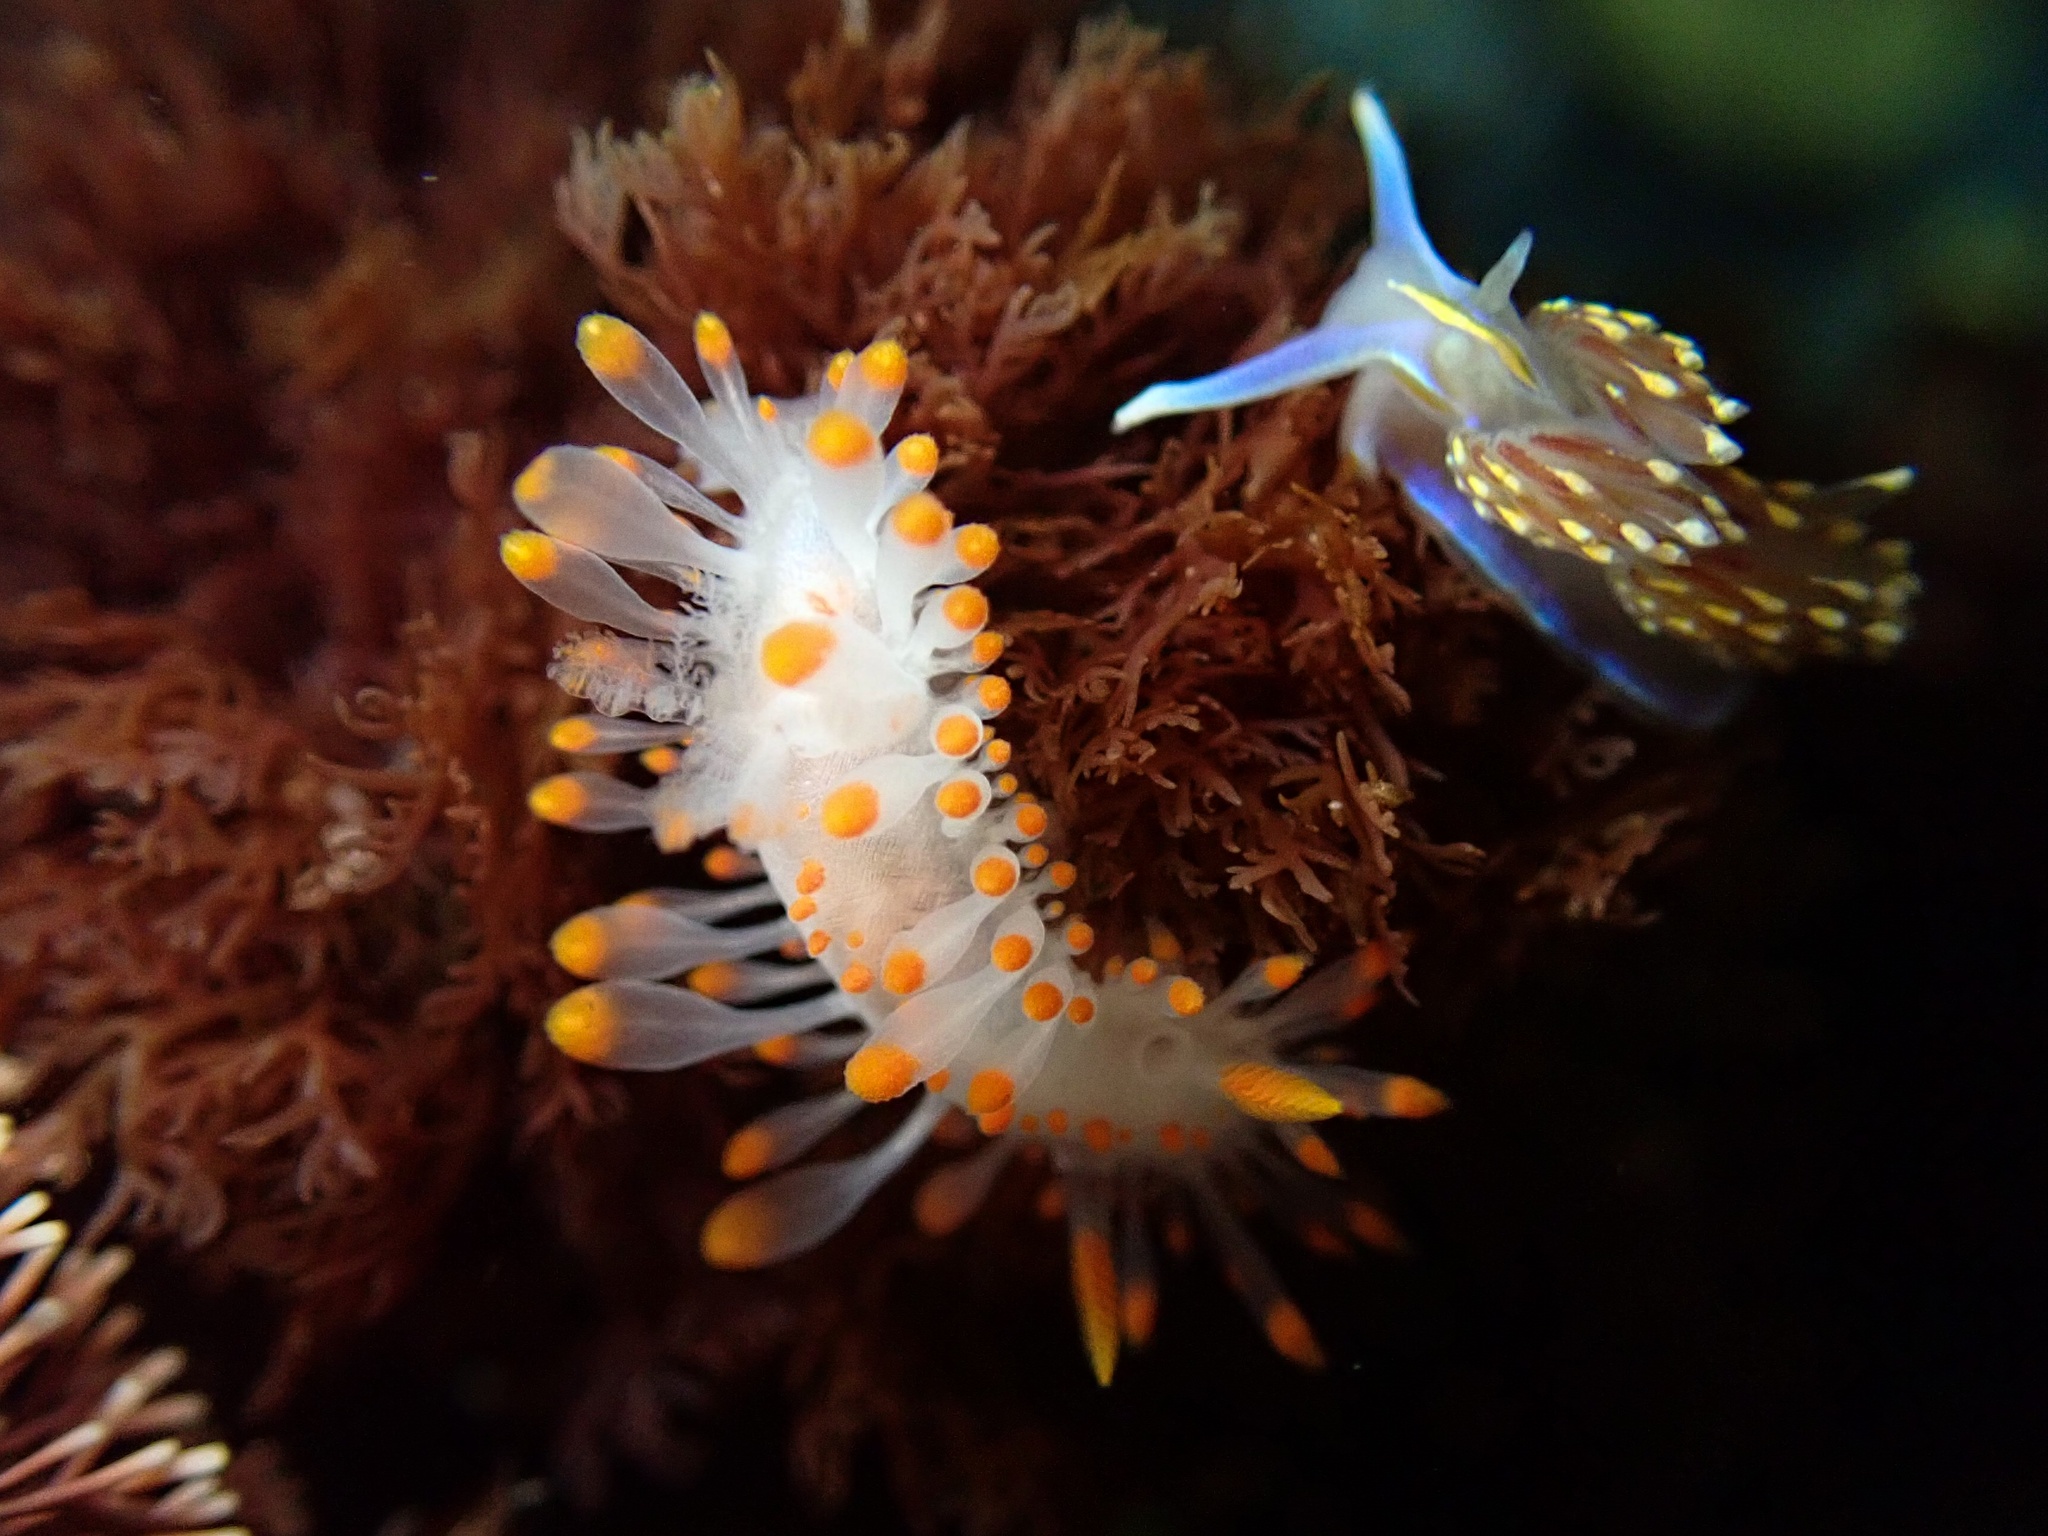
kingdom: Animalia
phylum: Mollusca
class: Gastropoda
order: Nudibranchia
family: Polyceridae
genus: Limacia
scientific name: Limacia mcdonaldi
